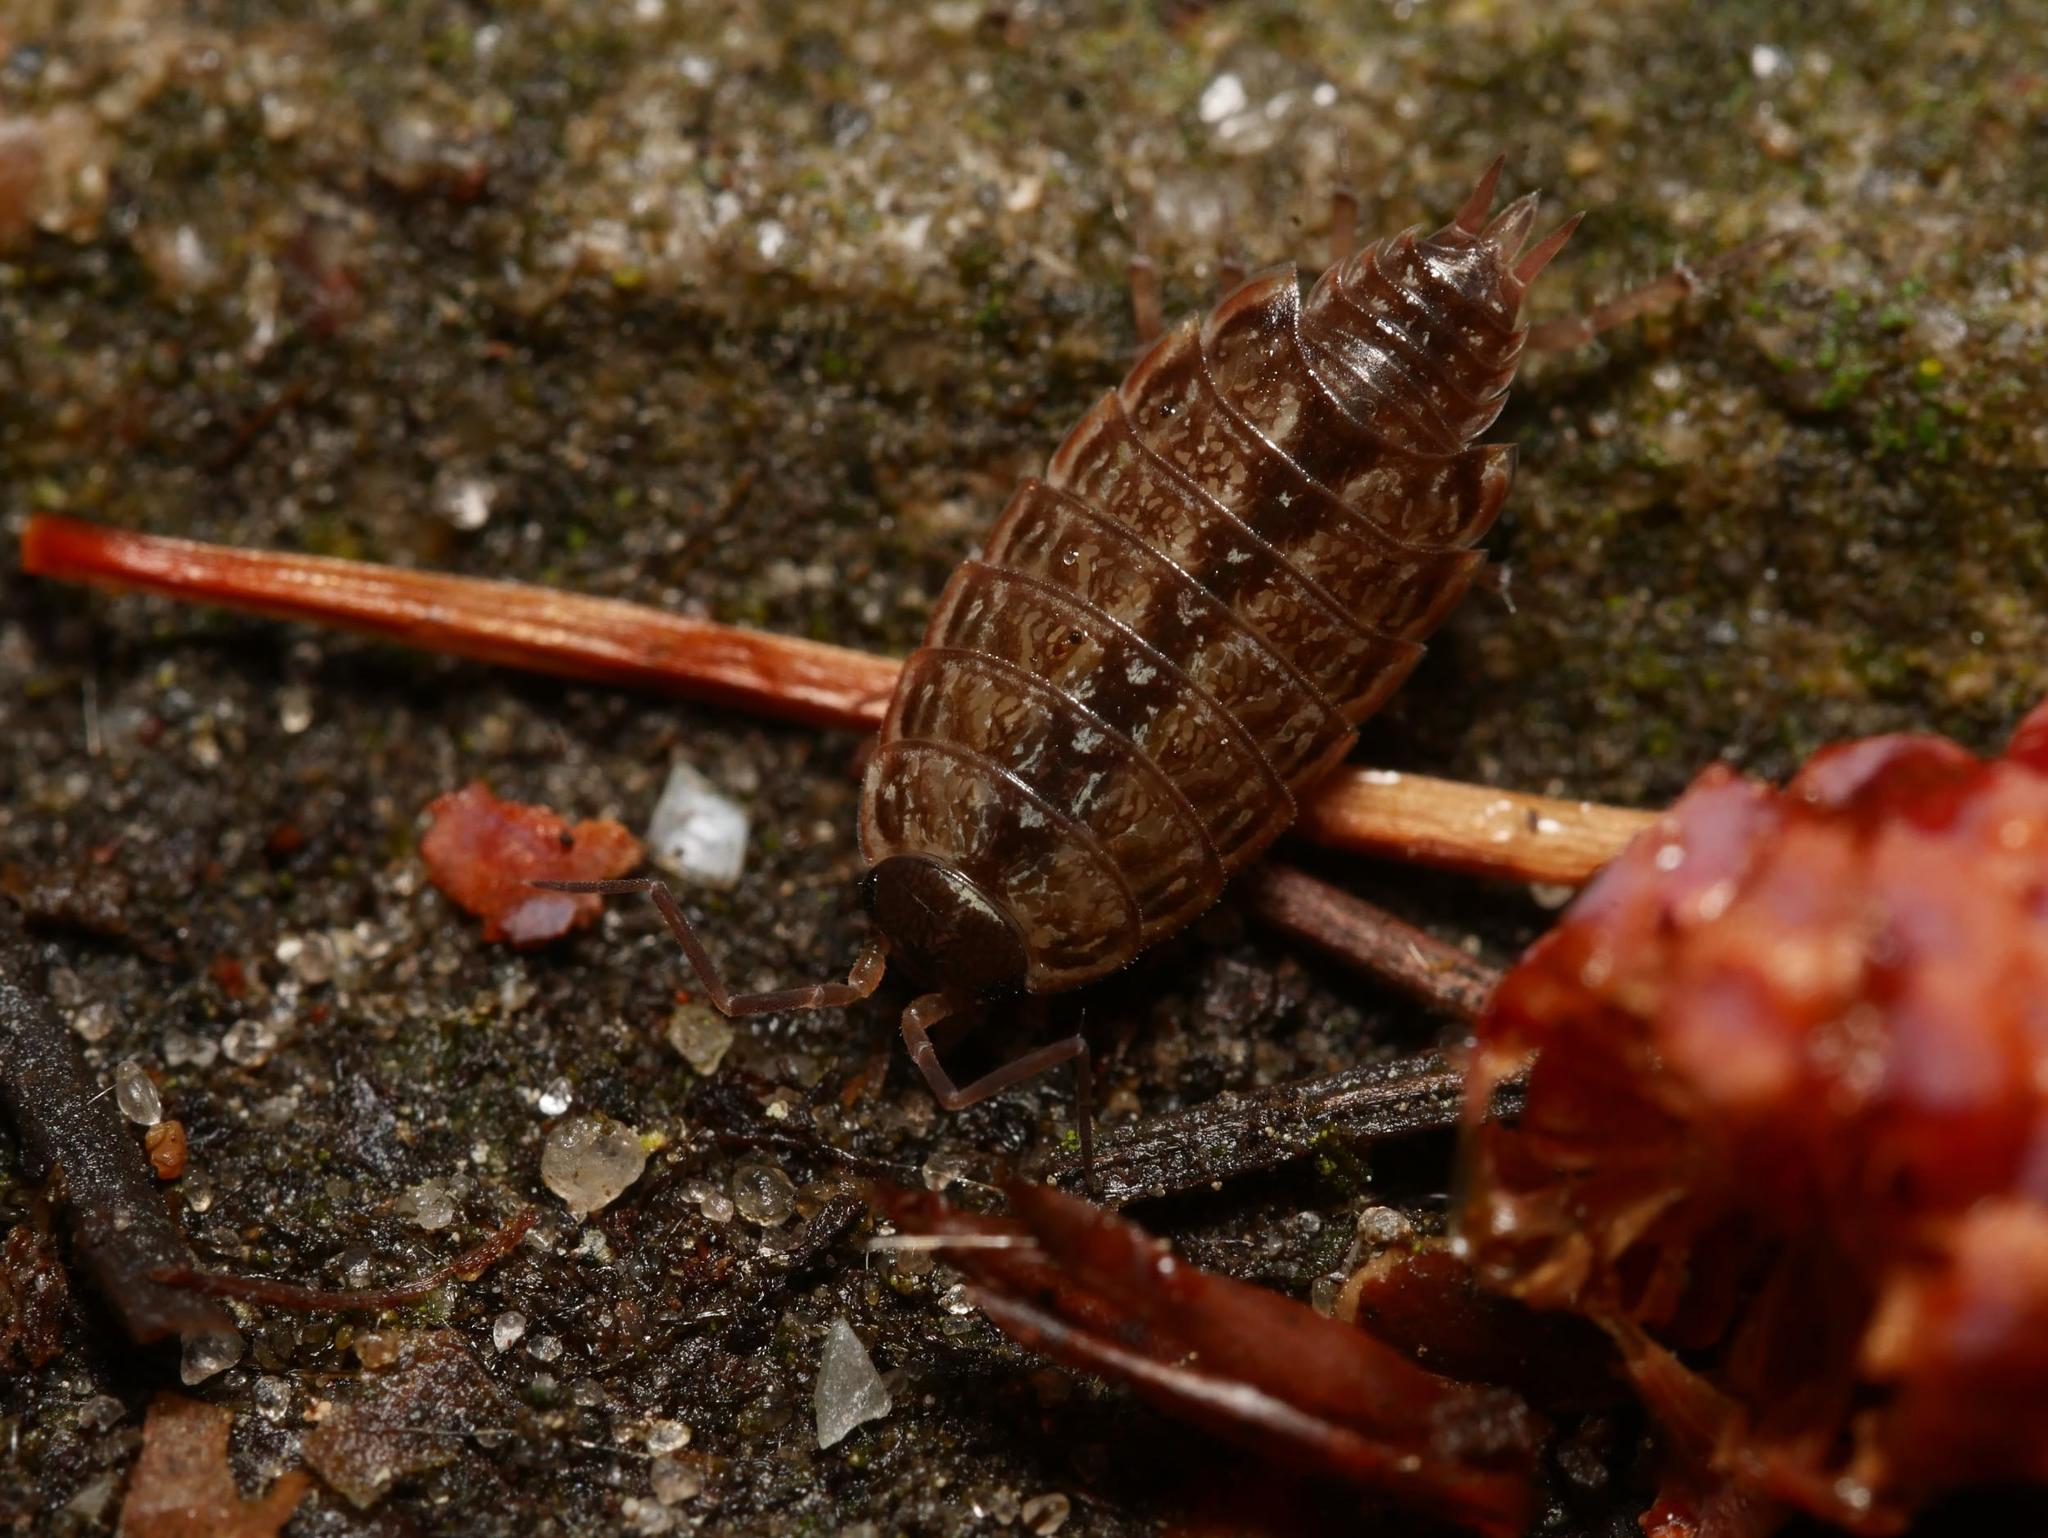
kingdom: Animalia
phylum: Arthropoda
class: Malacostraca
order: Isopoda
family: Philosciidae
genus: Philoscia
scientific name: Philoscia muscorum
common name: Common striped woodlouse
